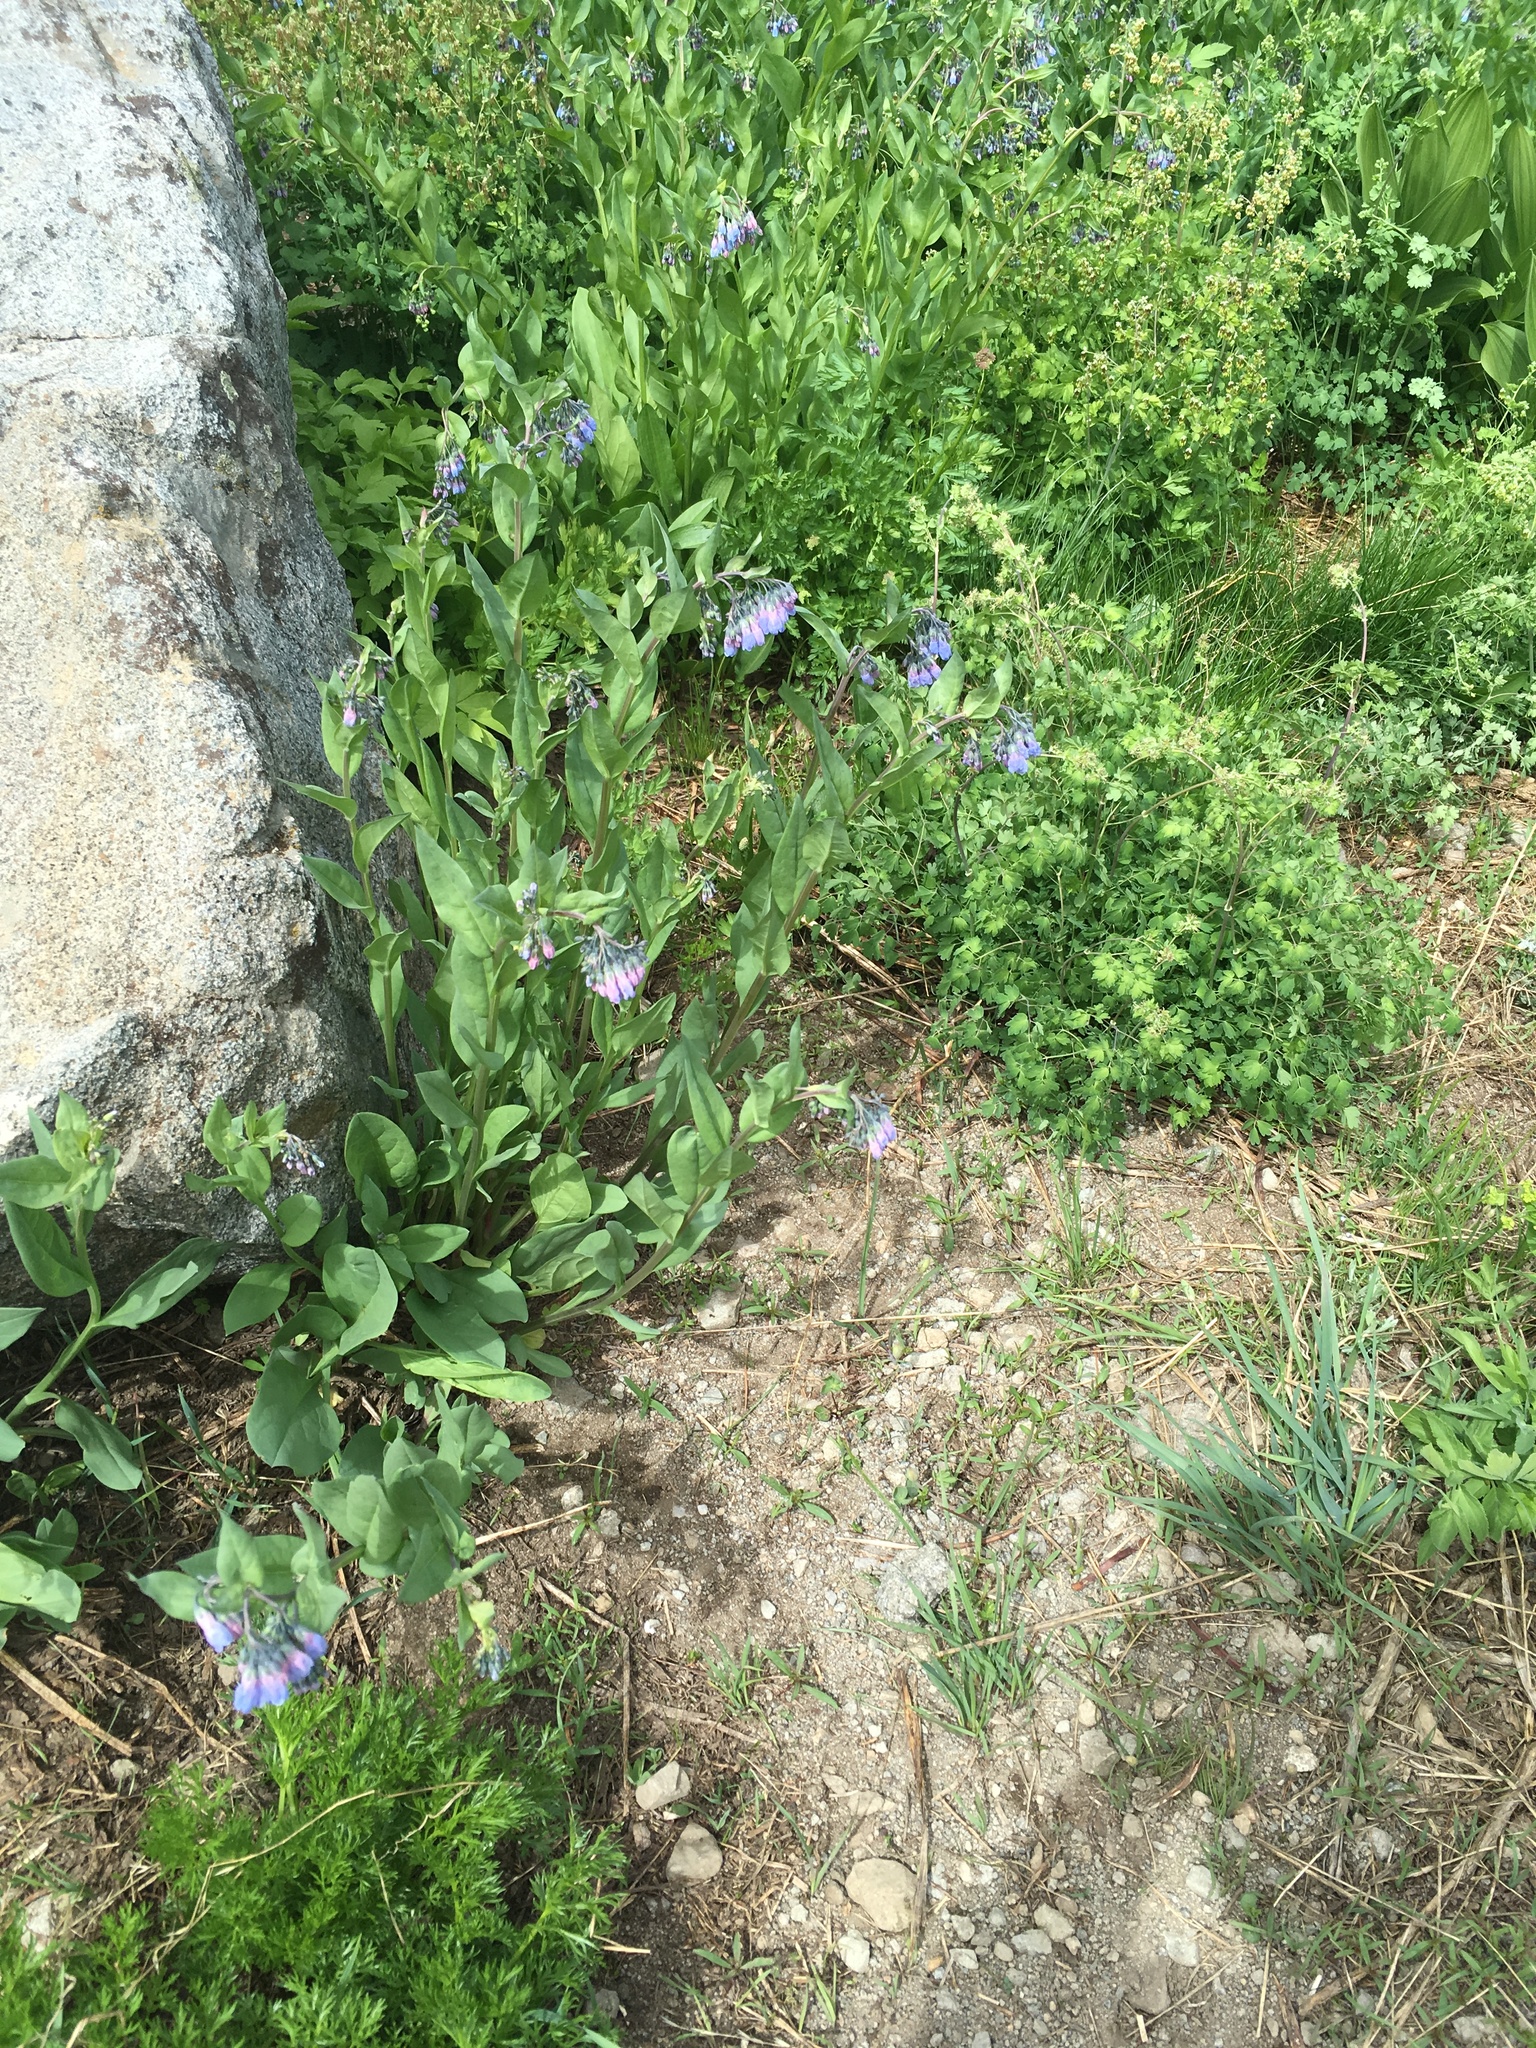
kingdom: Plantae
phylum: Tracheophyta
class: Magnoliopsida
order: Boraginales
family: Boraginaceae
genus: Mertensia
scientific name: Mertensia ciliata
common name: Tall chiming-bells
